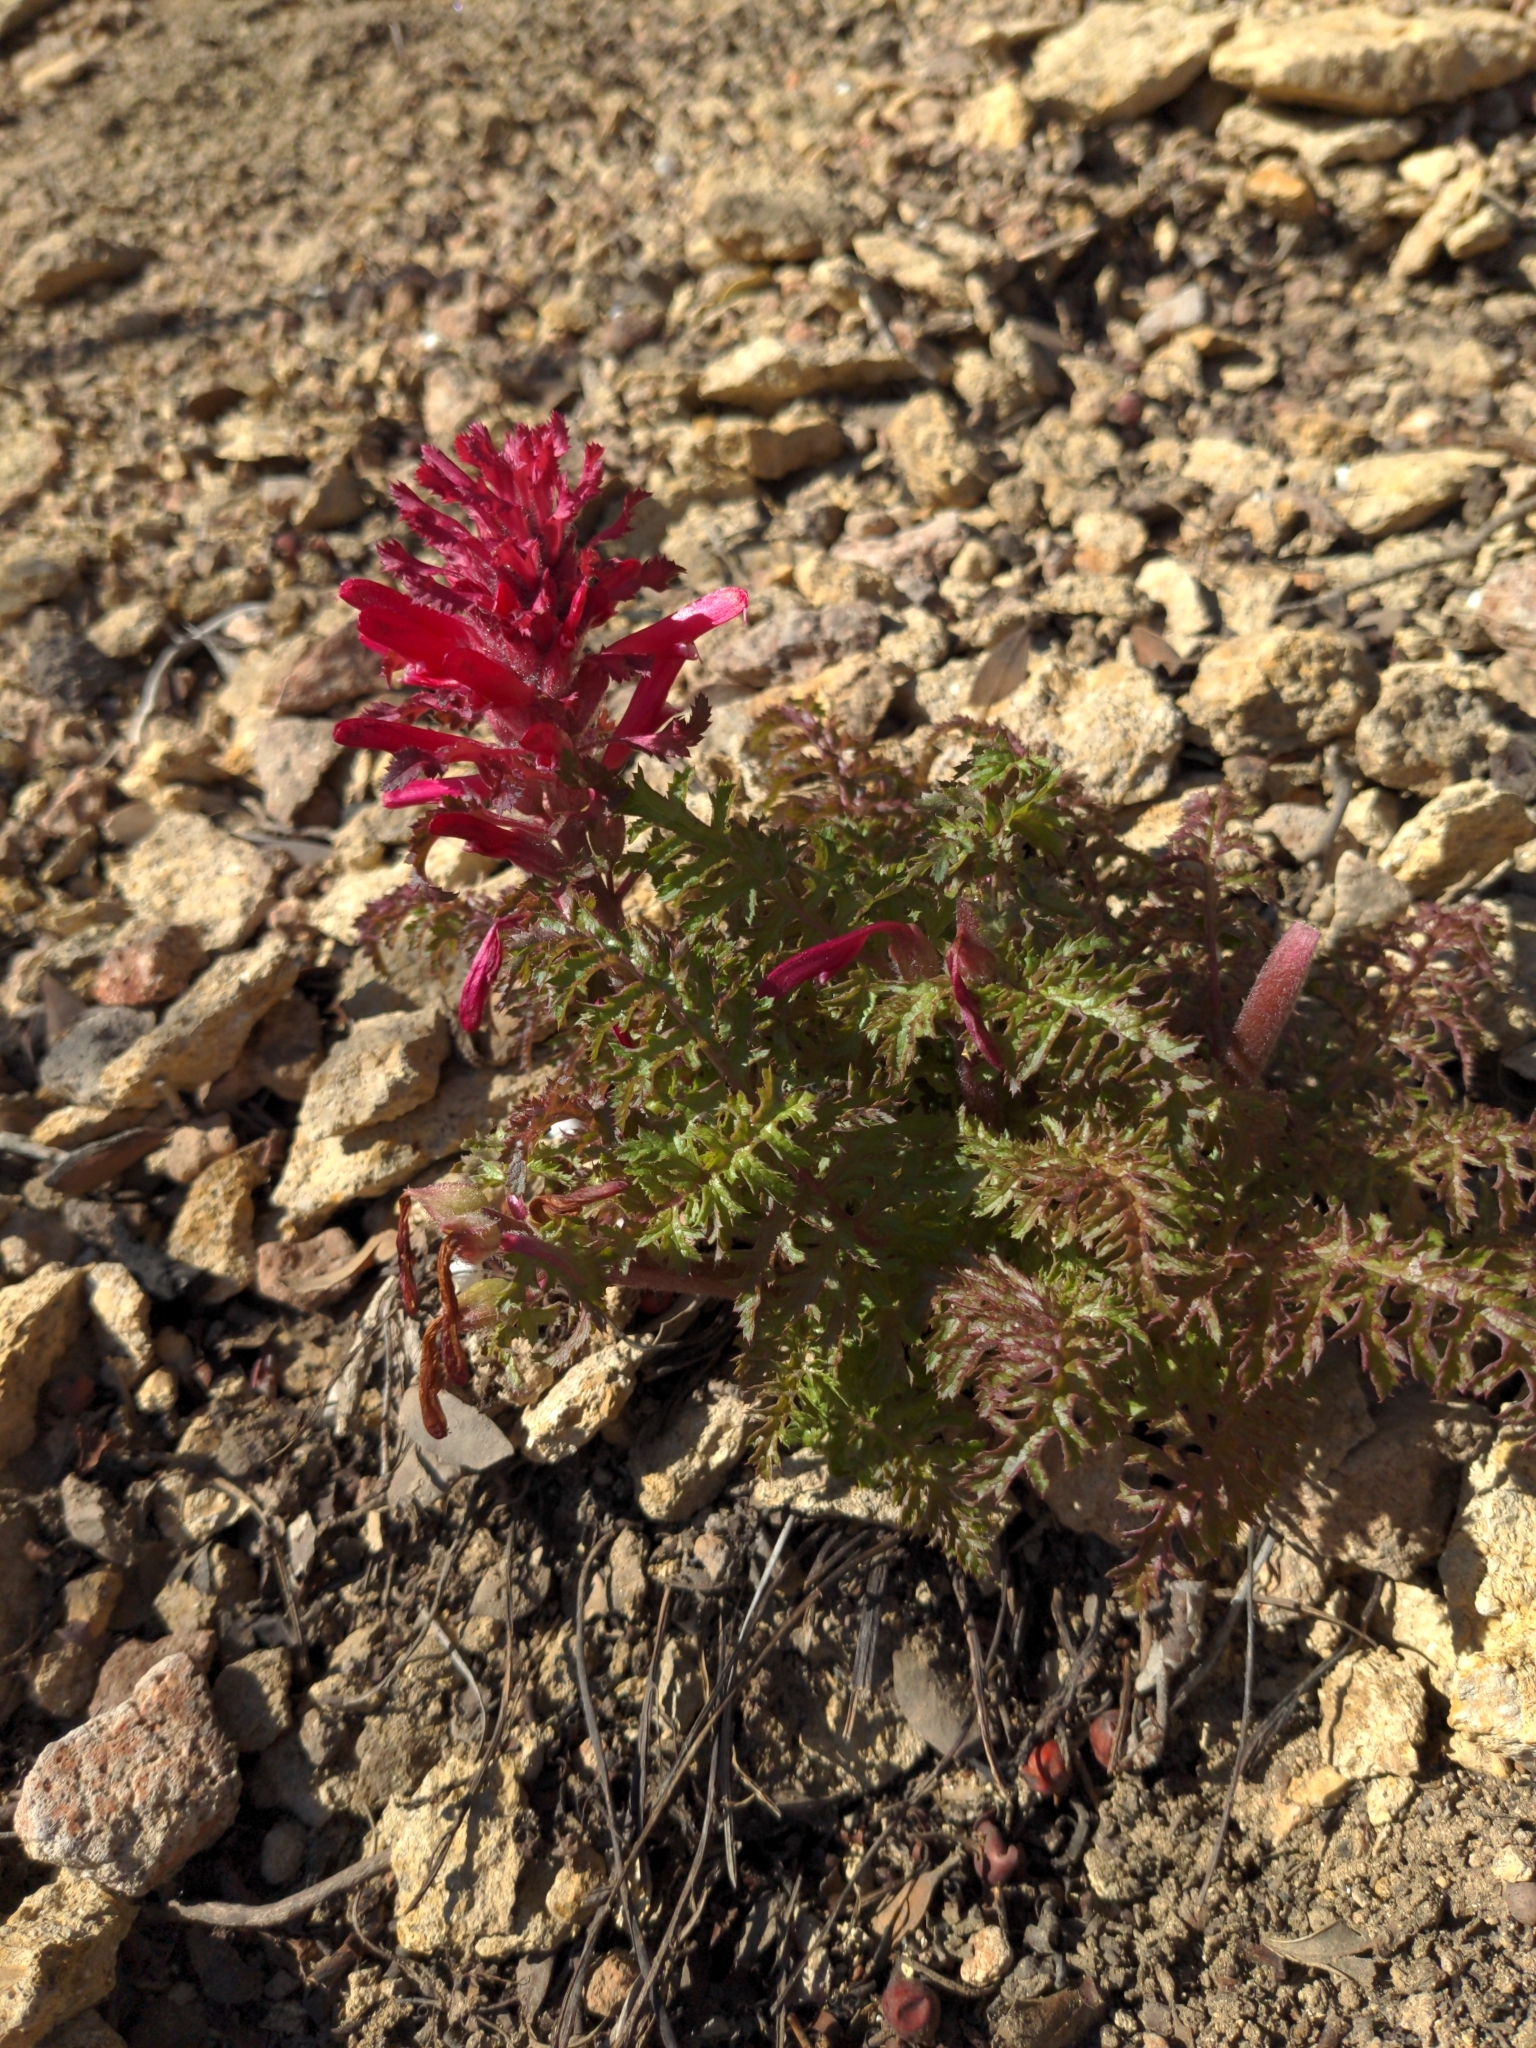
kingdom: Plantae
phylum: Tracheophyta
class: Magnoliopsida
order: Lamiales
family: Orobanchaceae
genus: Pedicularis
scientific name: Pedicularis densiflora
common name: Indian warrior
